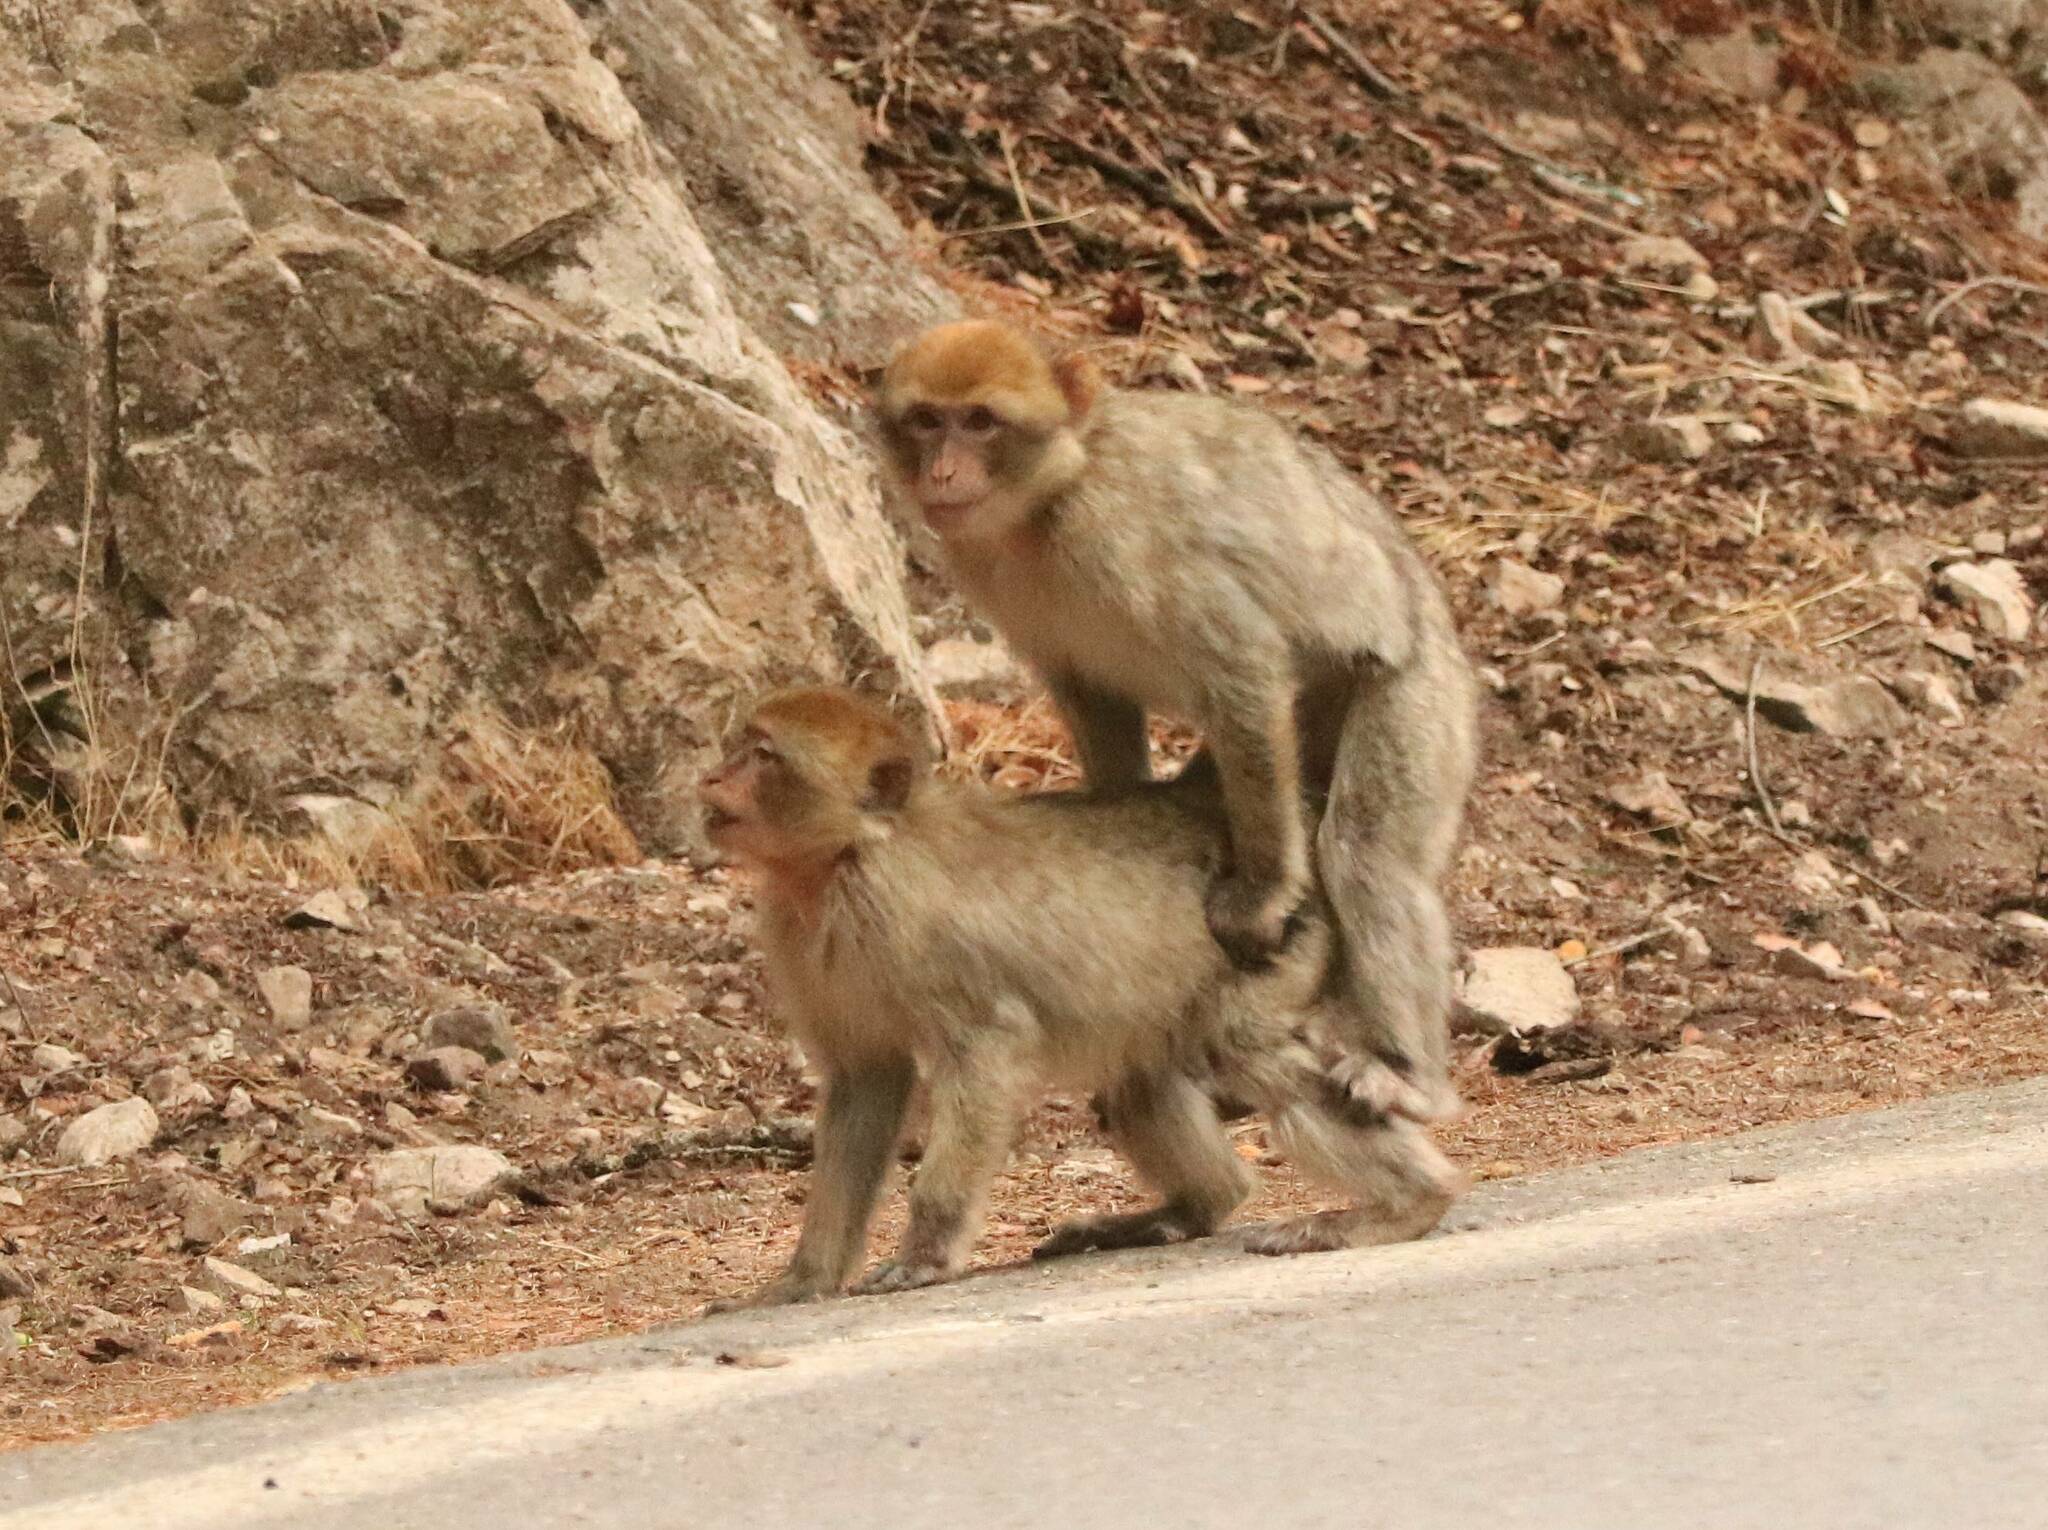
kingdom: Animalia
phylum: Chordata
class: Mammalia
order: Primates
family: Cercopithecidae
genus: Macaca
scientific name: Macaca sylvanus
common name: Barbary macaque
